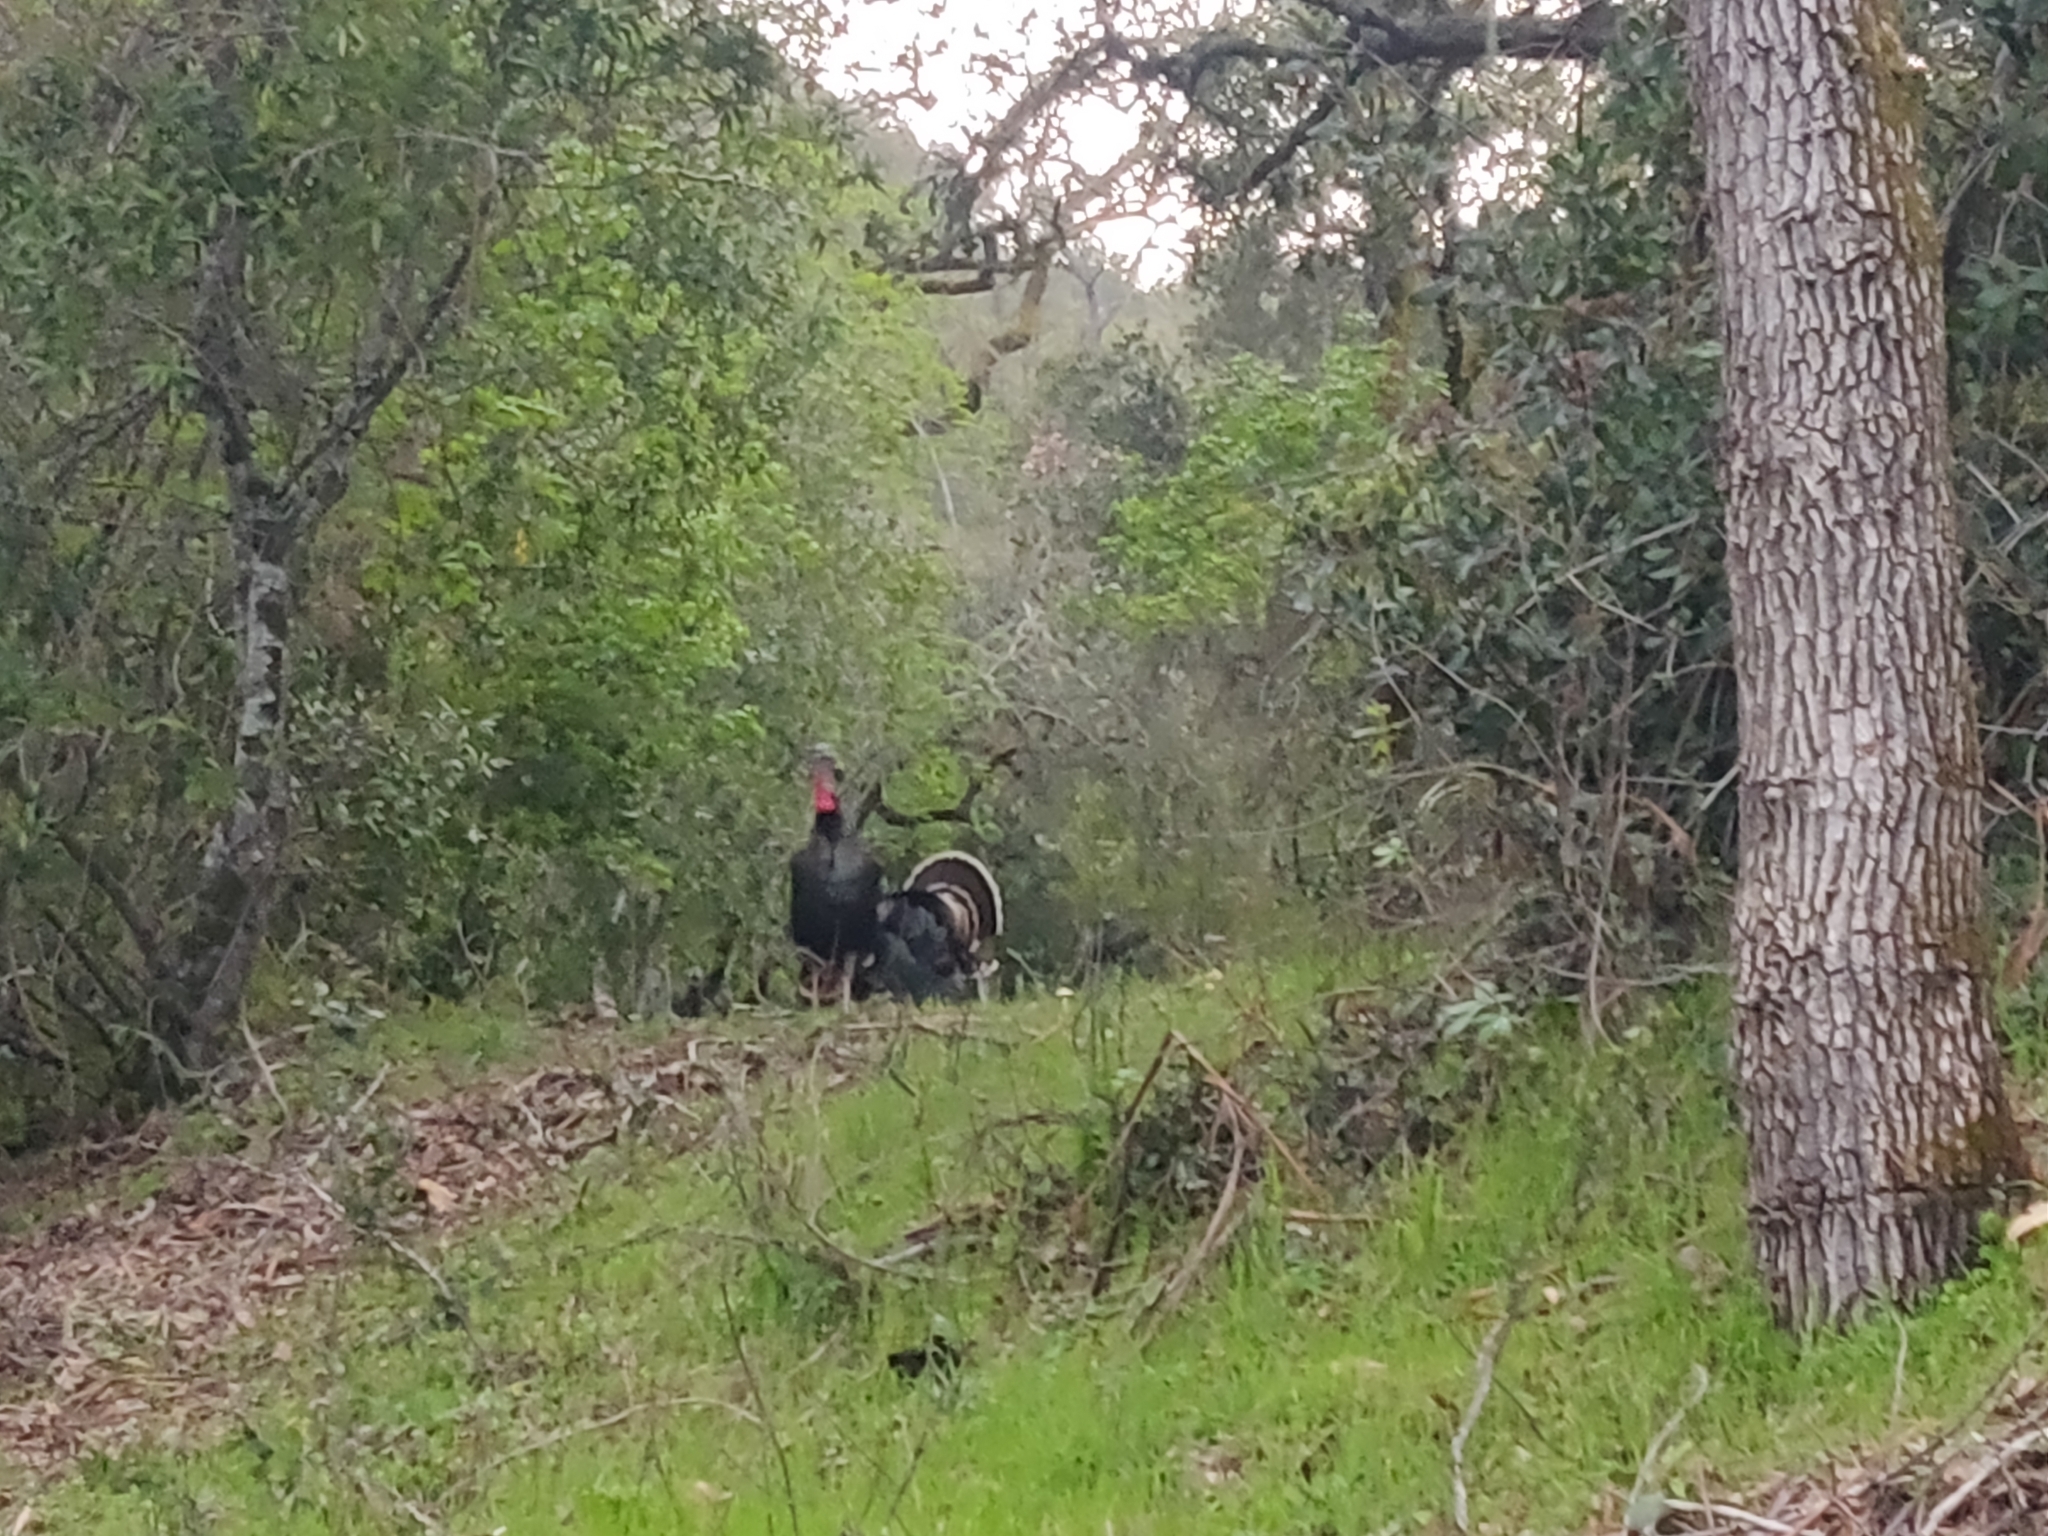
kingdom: Animalia
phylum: Chordata
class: Aves
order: Galliformes
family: Phasianidae
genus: Meleagris
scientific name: Meleagris gallopavo
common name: Wild turkey
